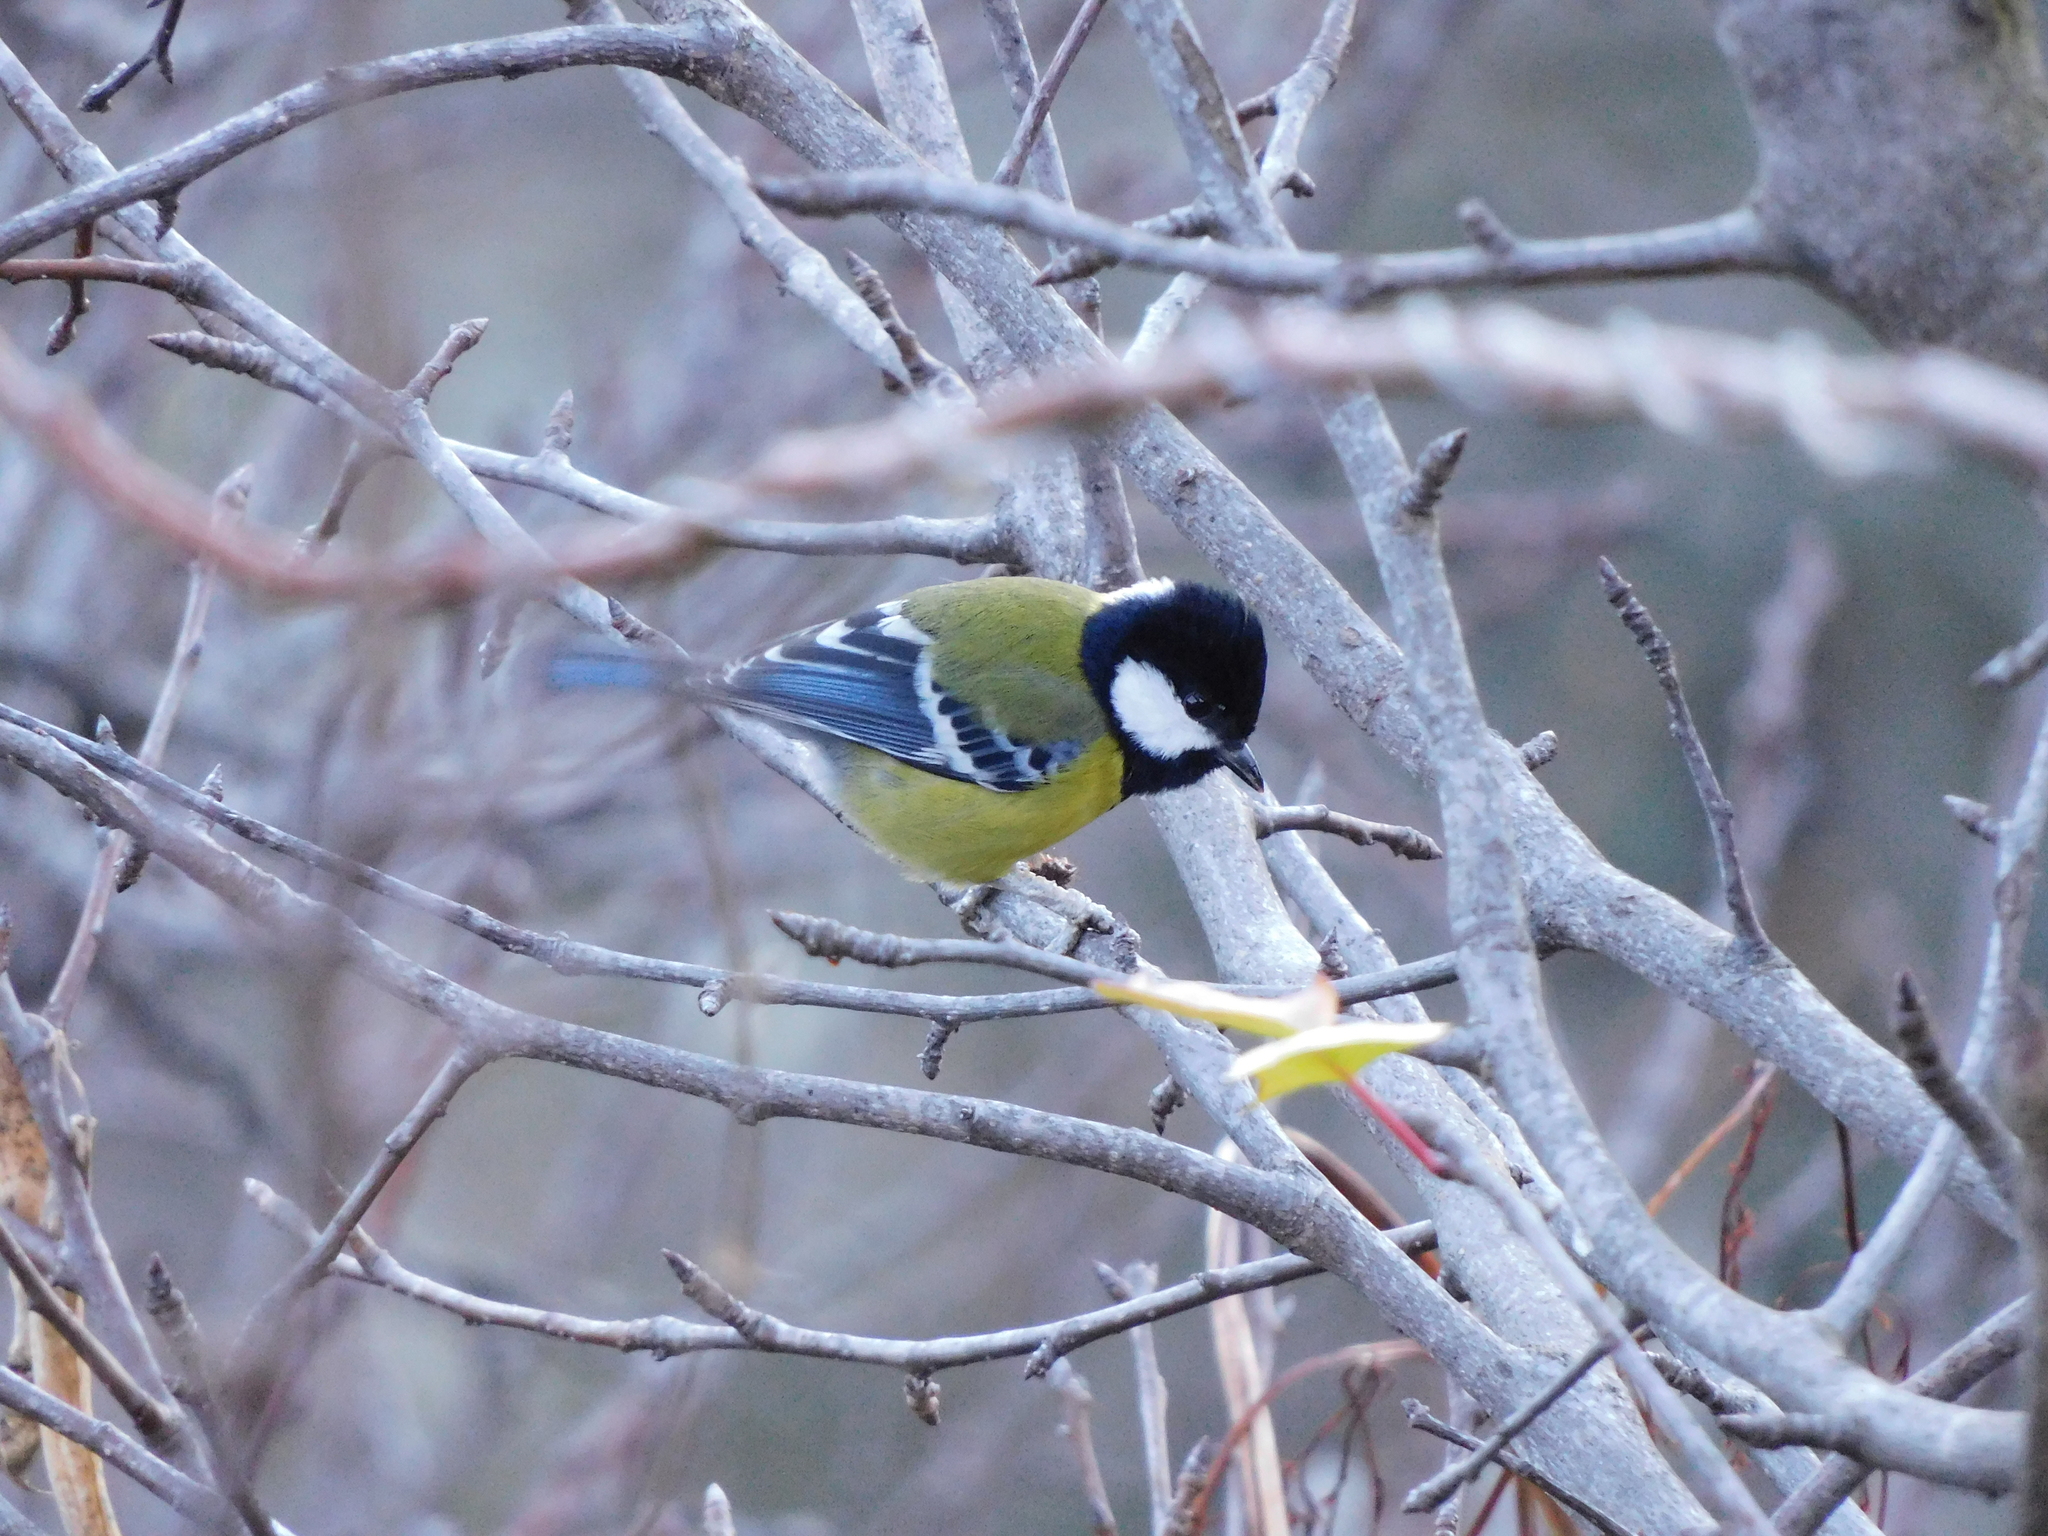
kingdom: Animalia
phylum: Chordata
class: Aves
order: Passeriformes
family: Paridae
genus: Parus
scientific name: Parus monticolus
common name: Green-backed tit
